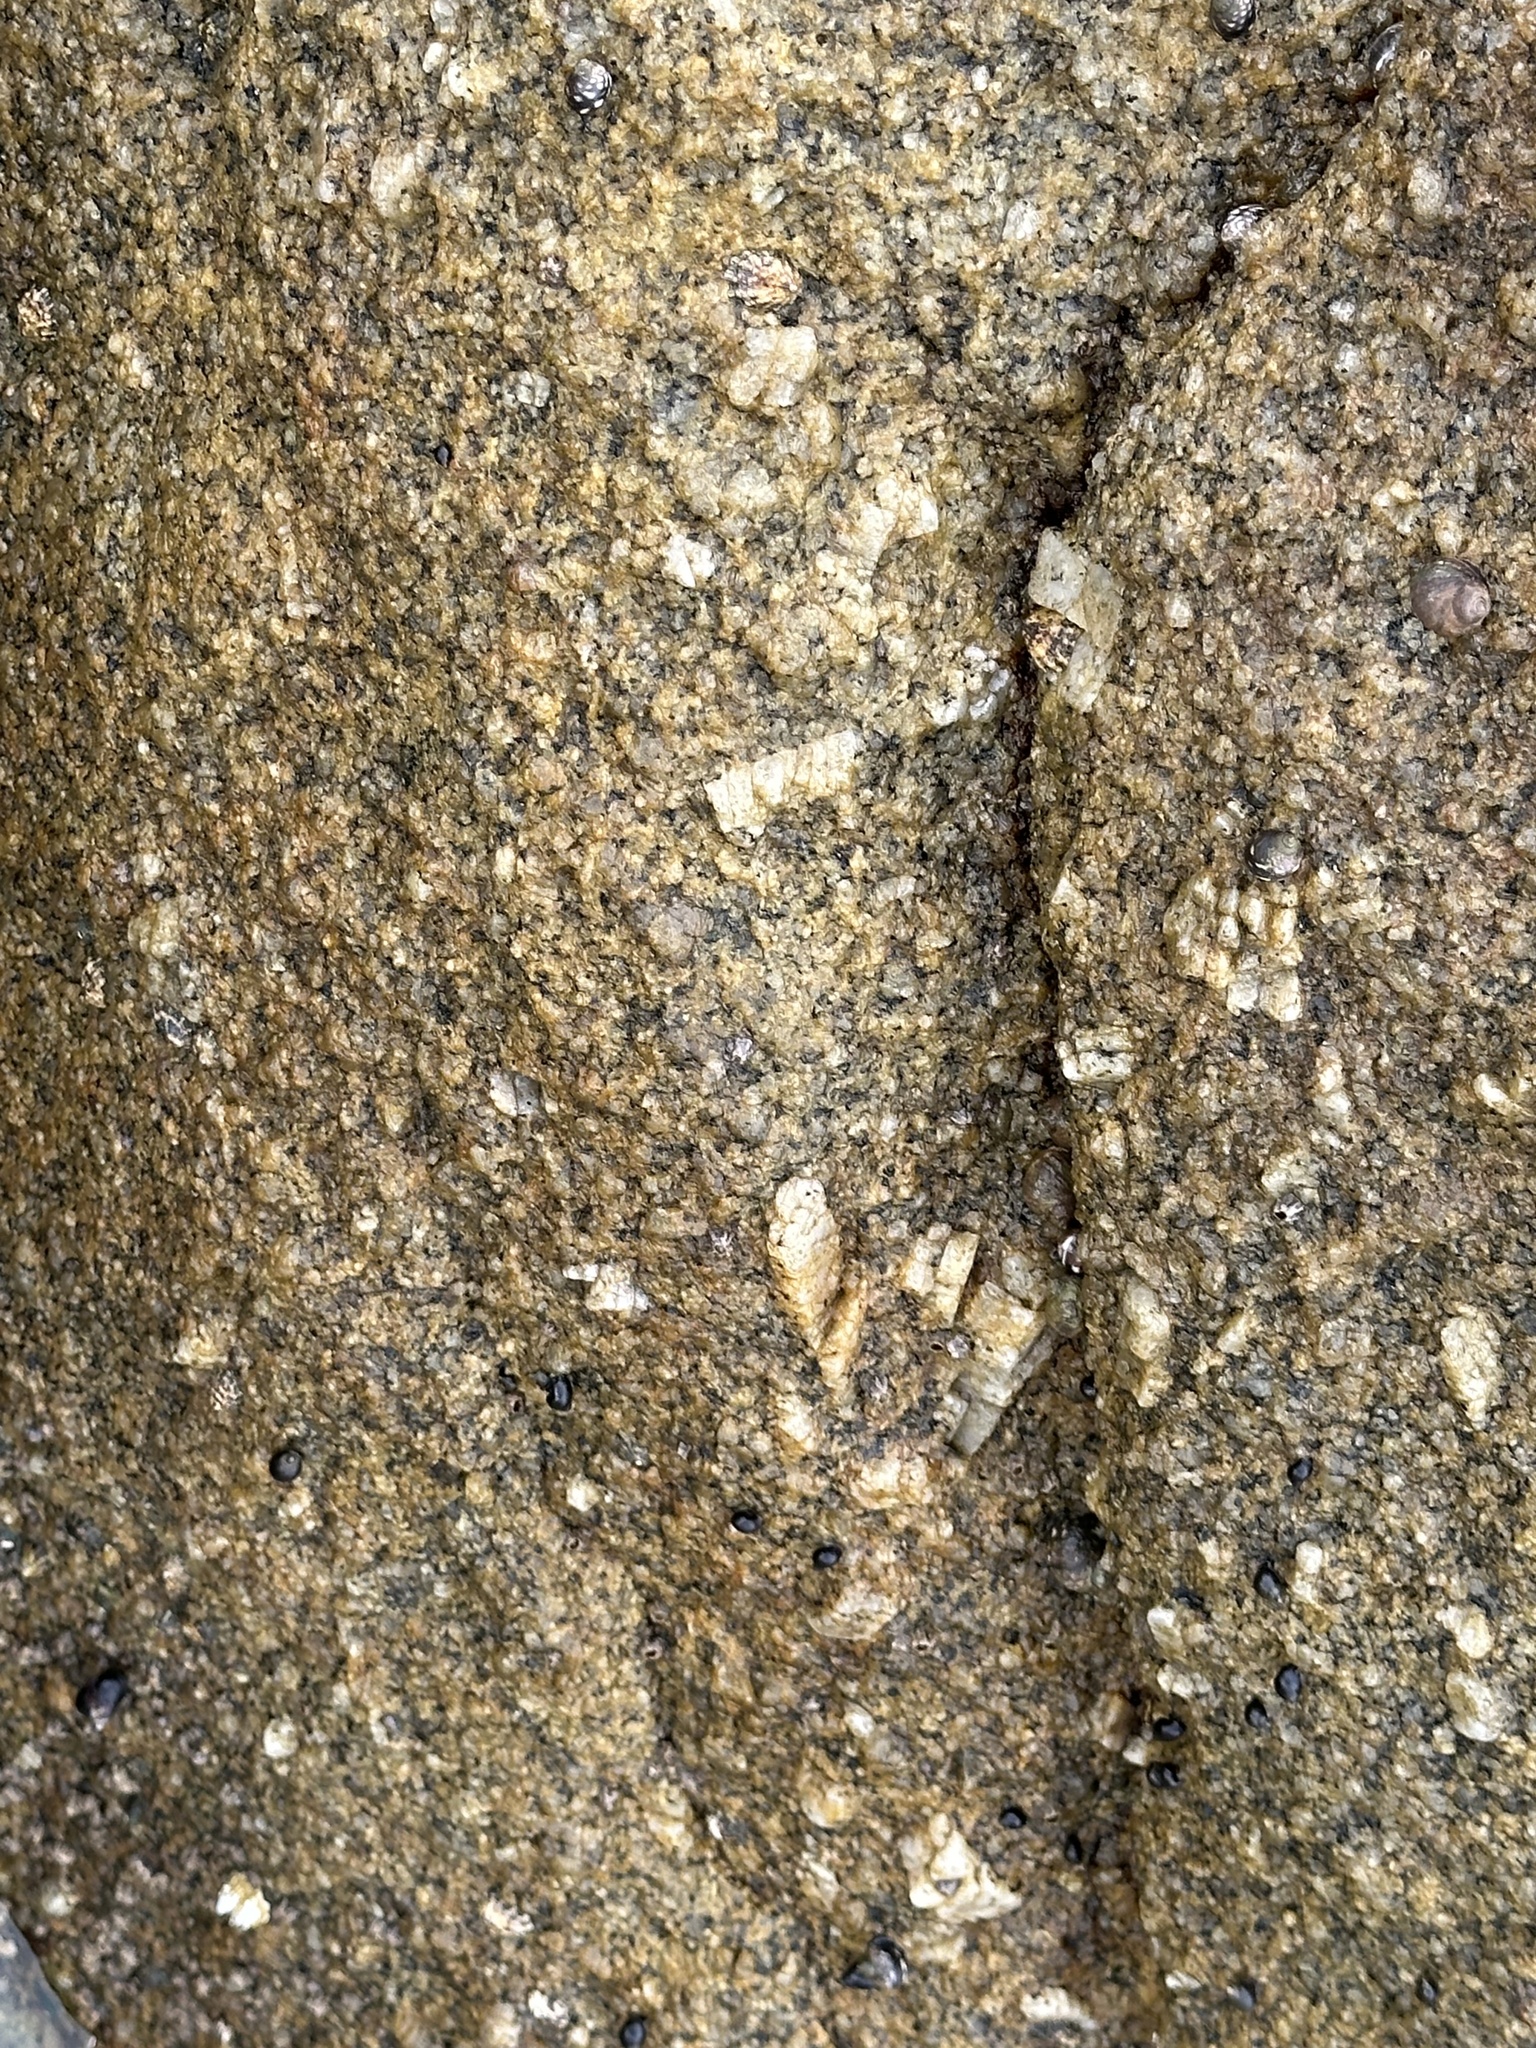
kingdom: Animalia
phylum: Arthropoda
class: Maxillopoda
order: Pedunculata
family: Pollicipedidae
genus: Pollicipes
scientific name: Pollicipes polymerus
